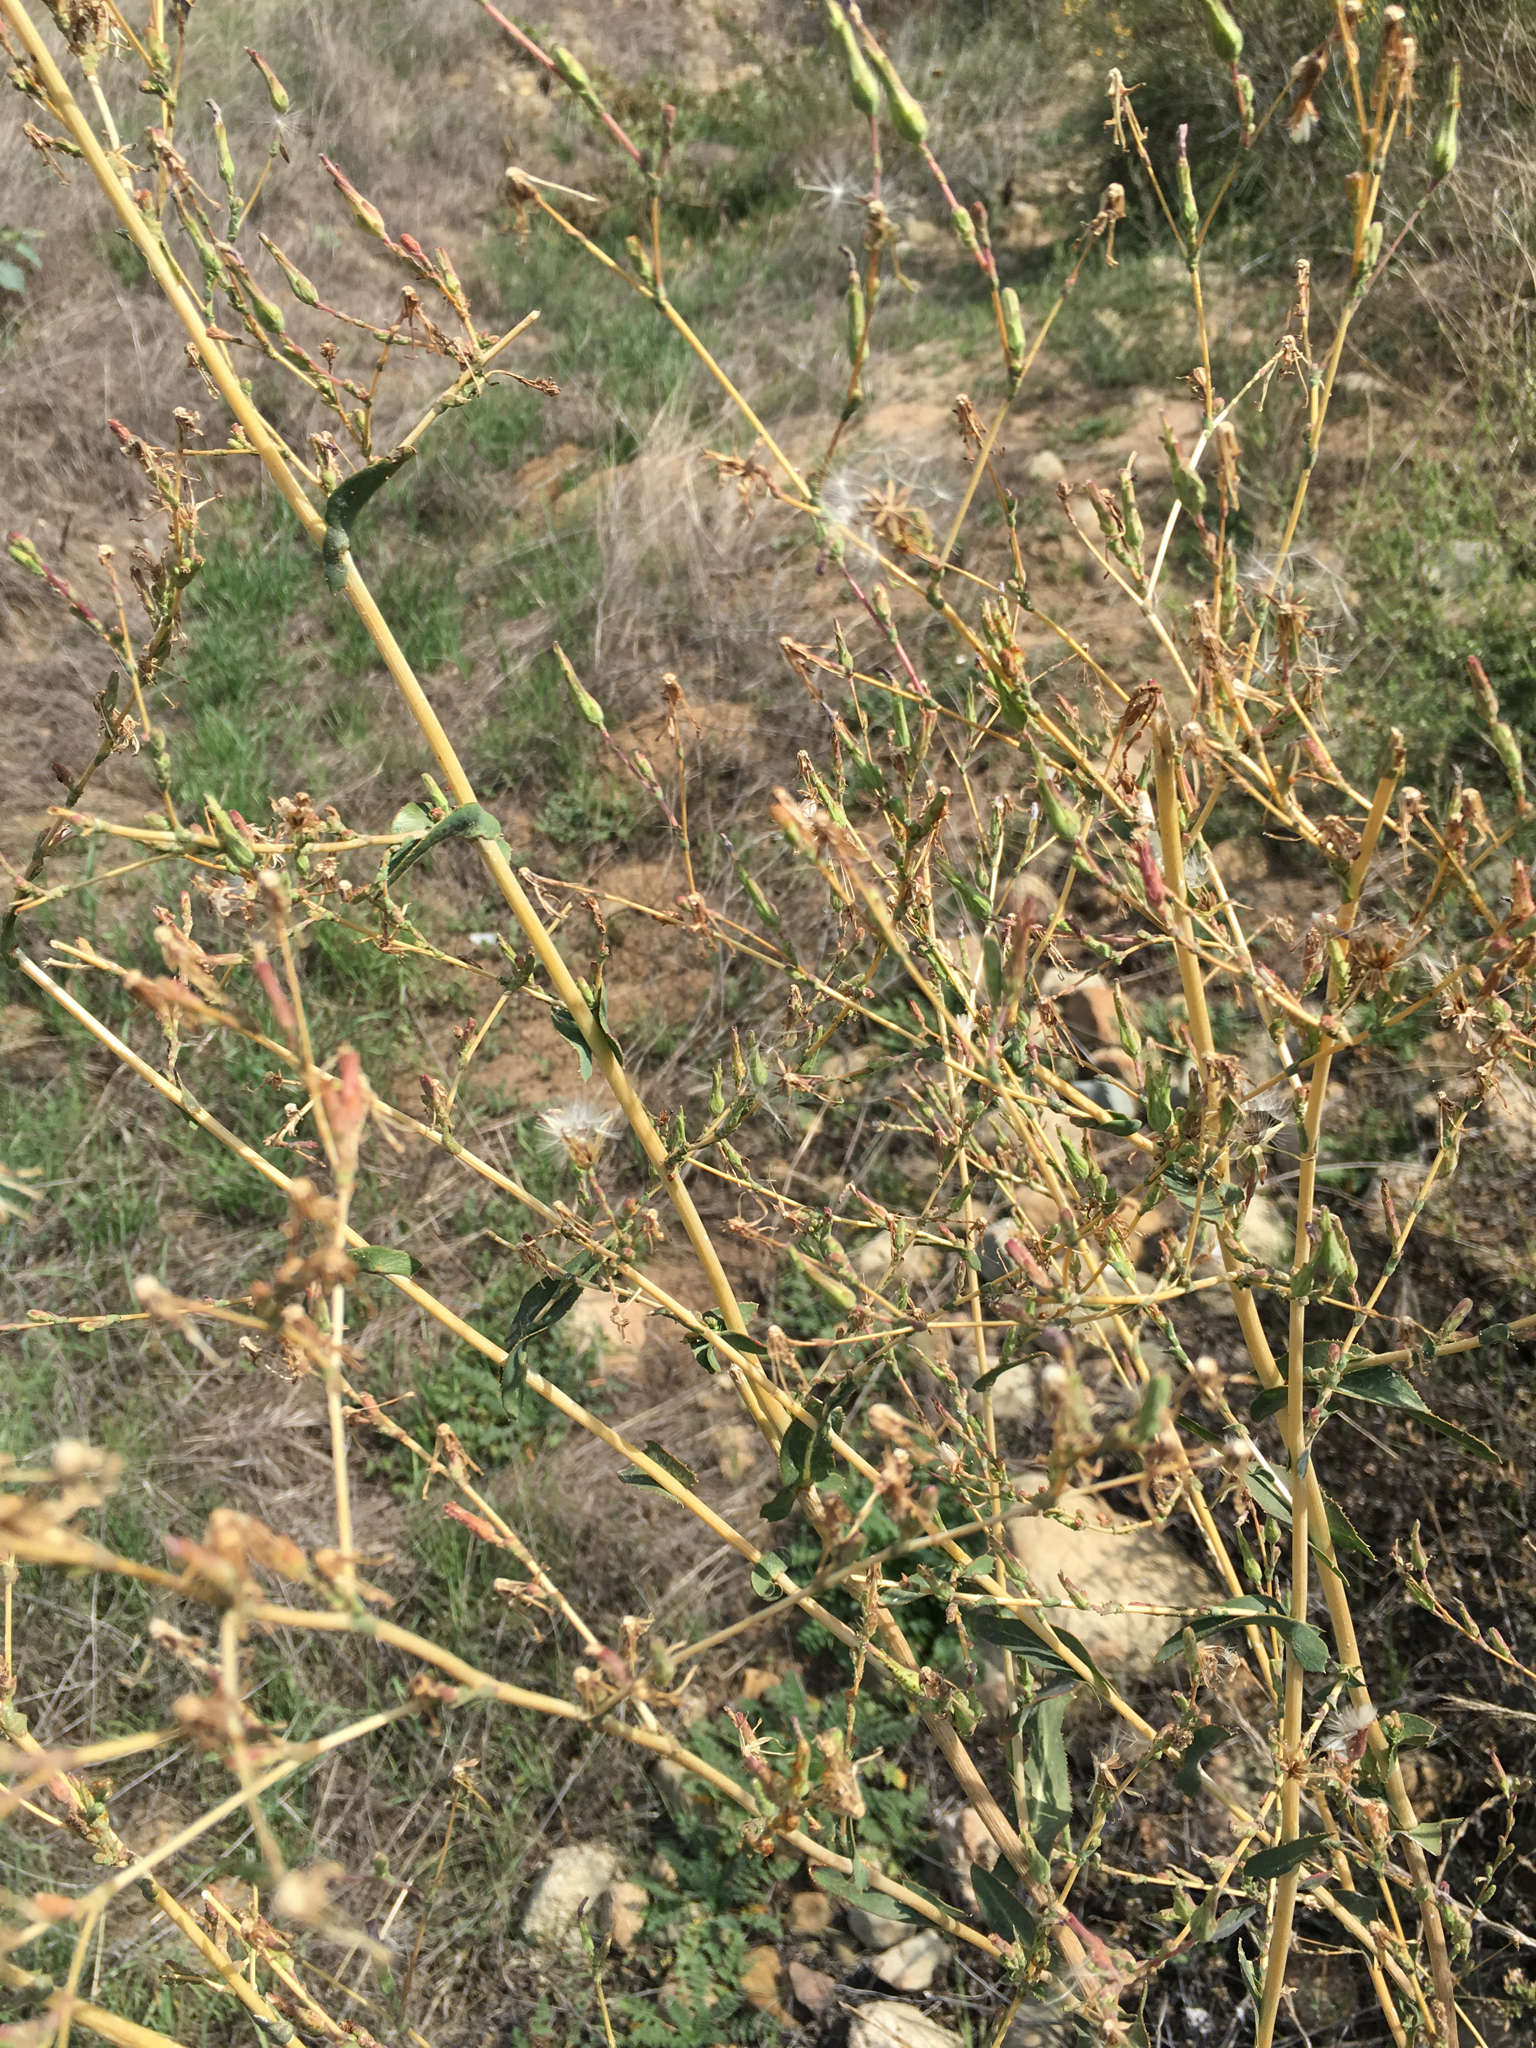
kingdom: Plantae
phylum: Tracheophyta
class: Magnoliopsida
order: Asterales
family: Asteraceae
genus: Lactuca
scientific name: Lactuca serriola
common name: Prickly lettuce
